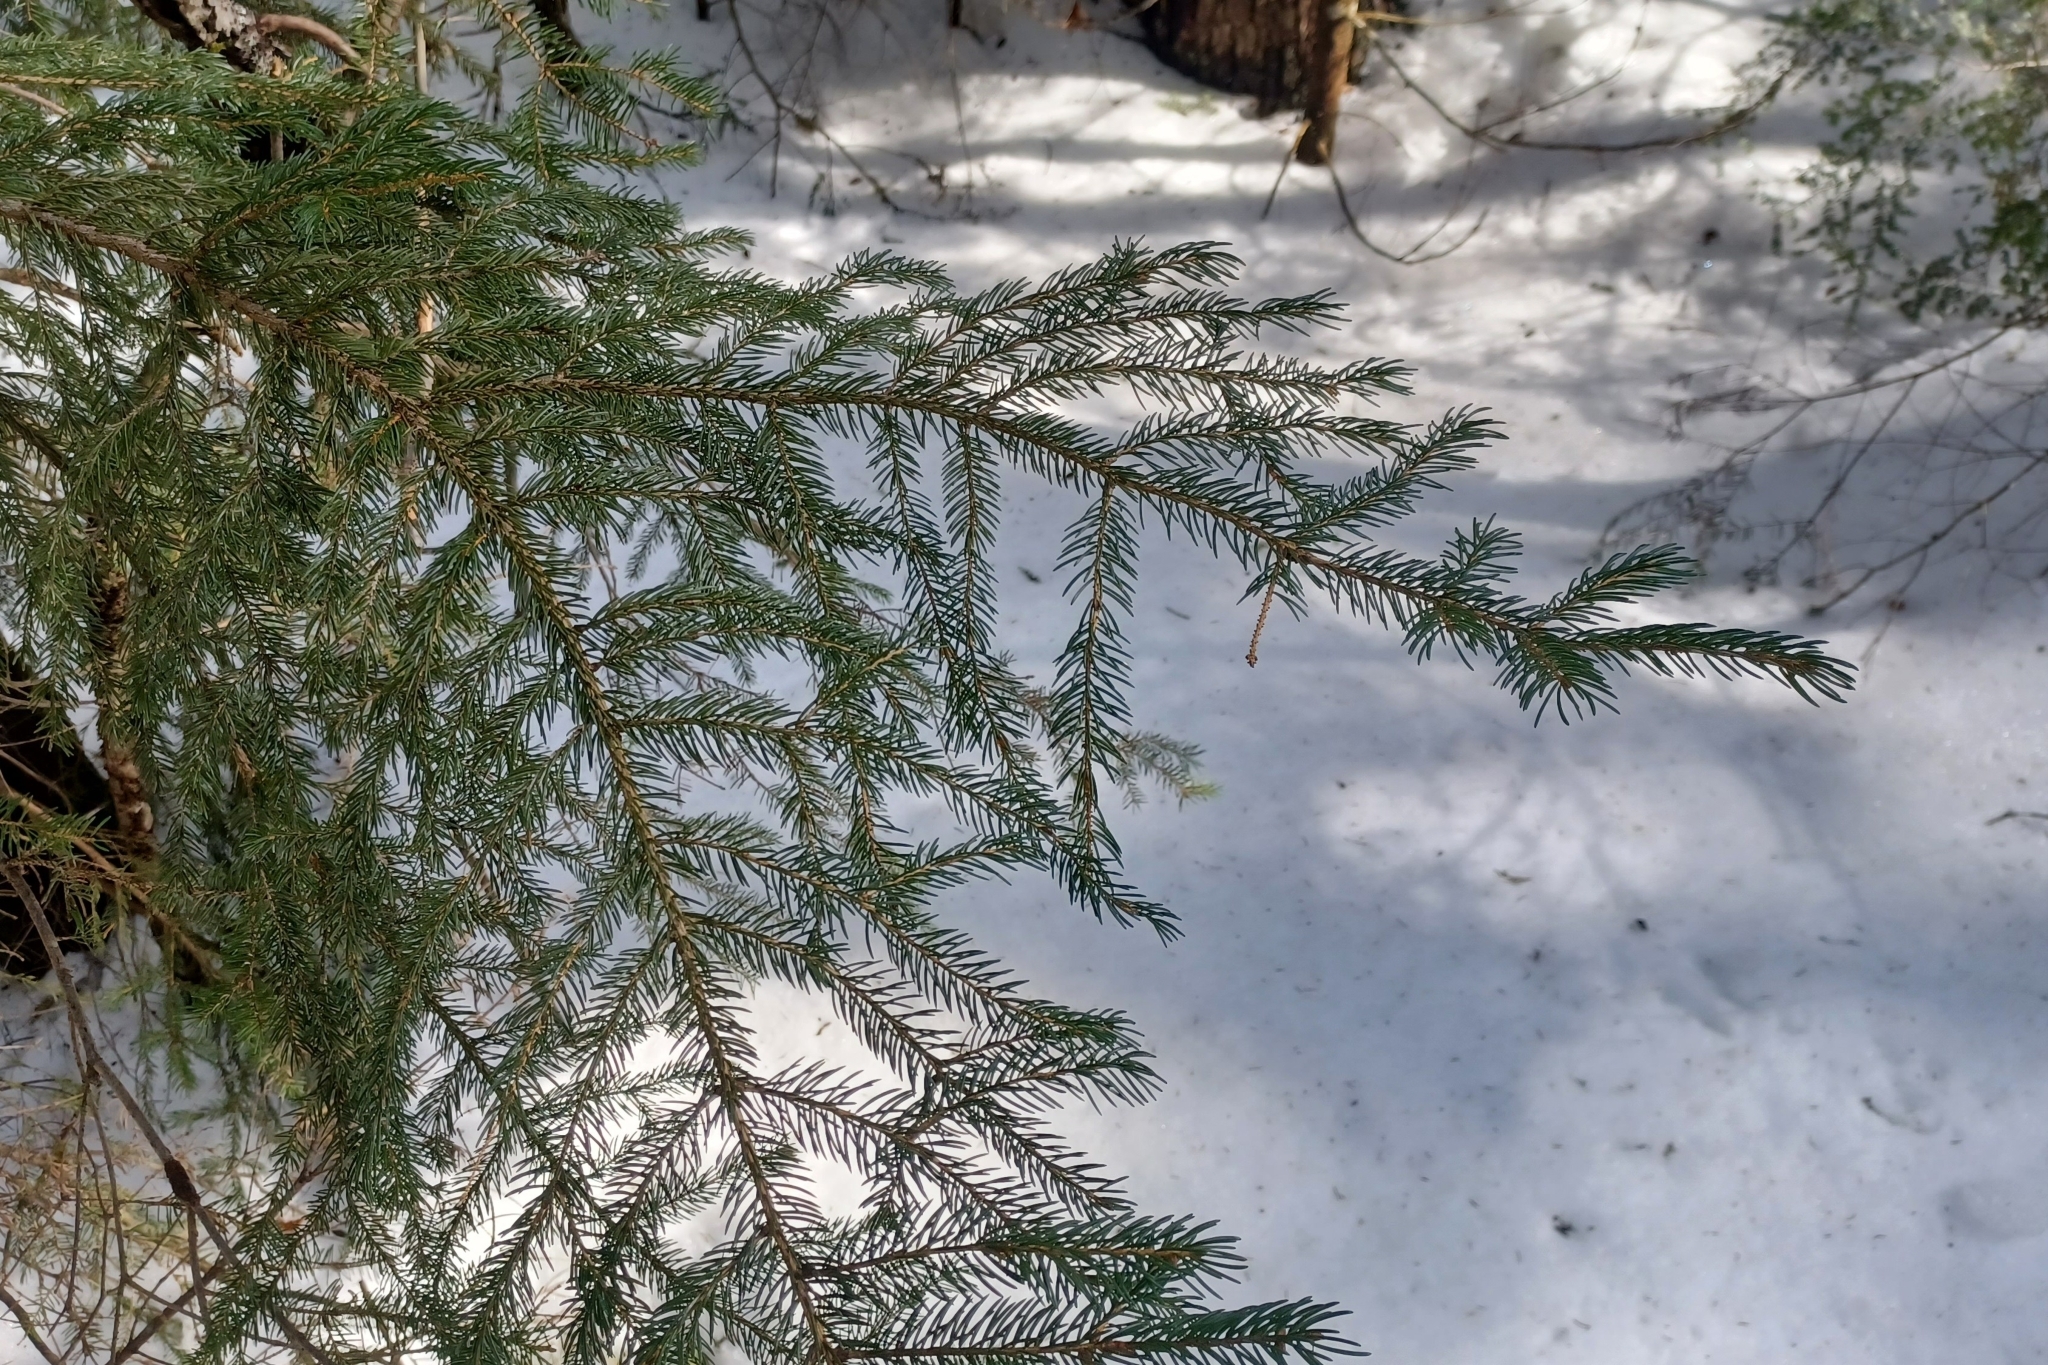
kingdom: Plantae
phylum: Tracheophyta
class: Pinopsida
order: Pinales
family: Pinaceae
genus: Picea
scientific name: Picea rubens
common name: Red spruce
